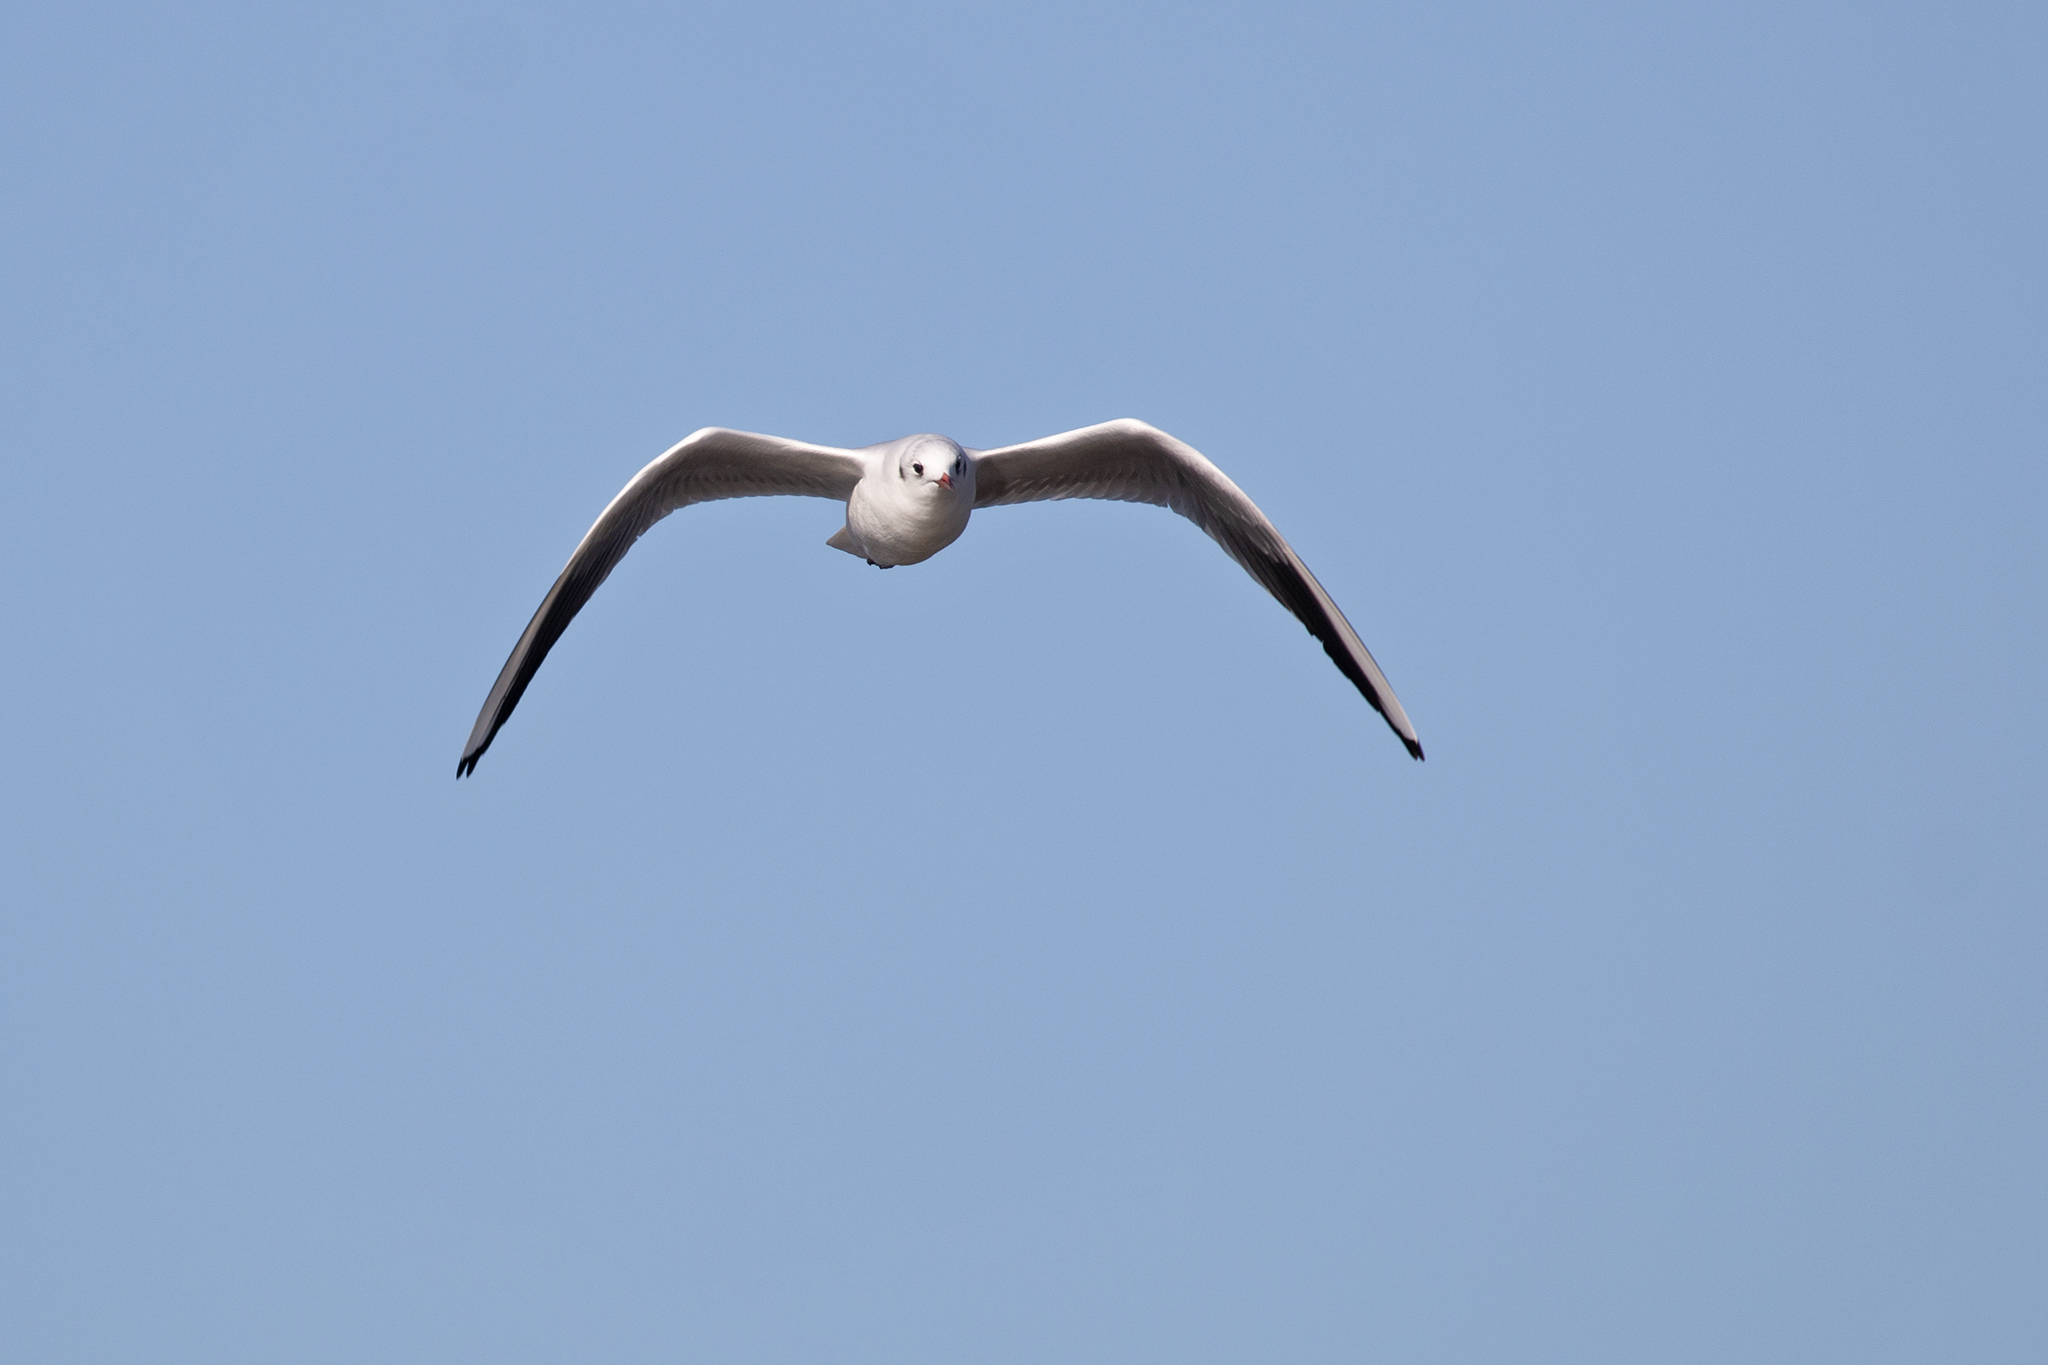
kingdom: Animalia
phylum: Chordata
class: Aves
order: Charadriiformes
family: Laridae
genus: Chroicocephalus
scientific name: Chroicocephalus ridibundus
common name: Black-headed gull
